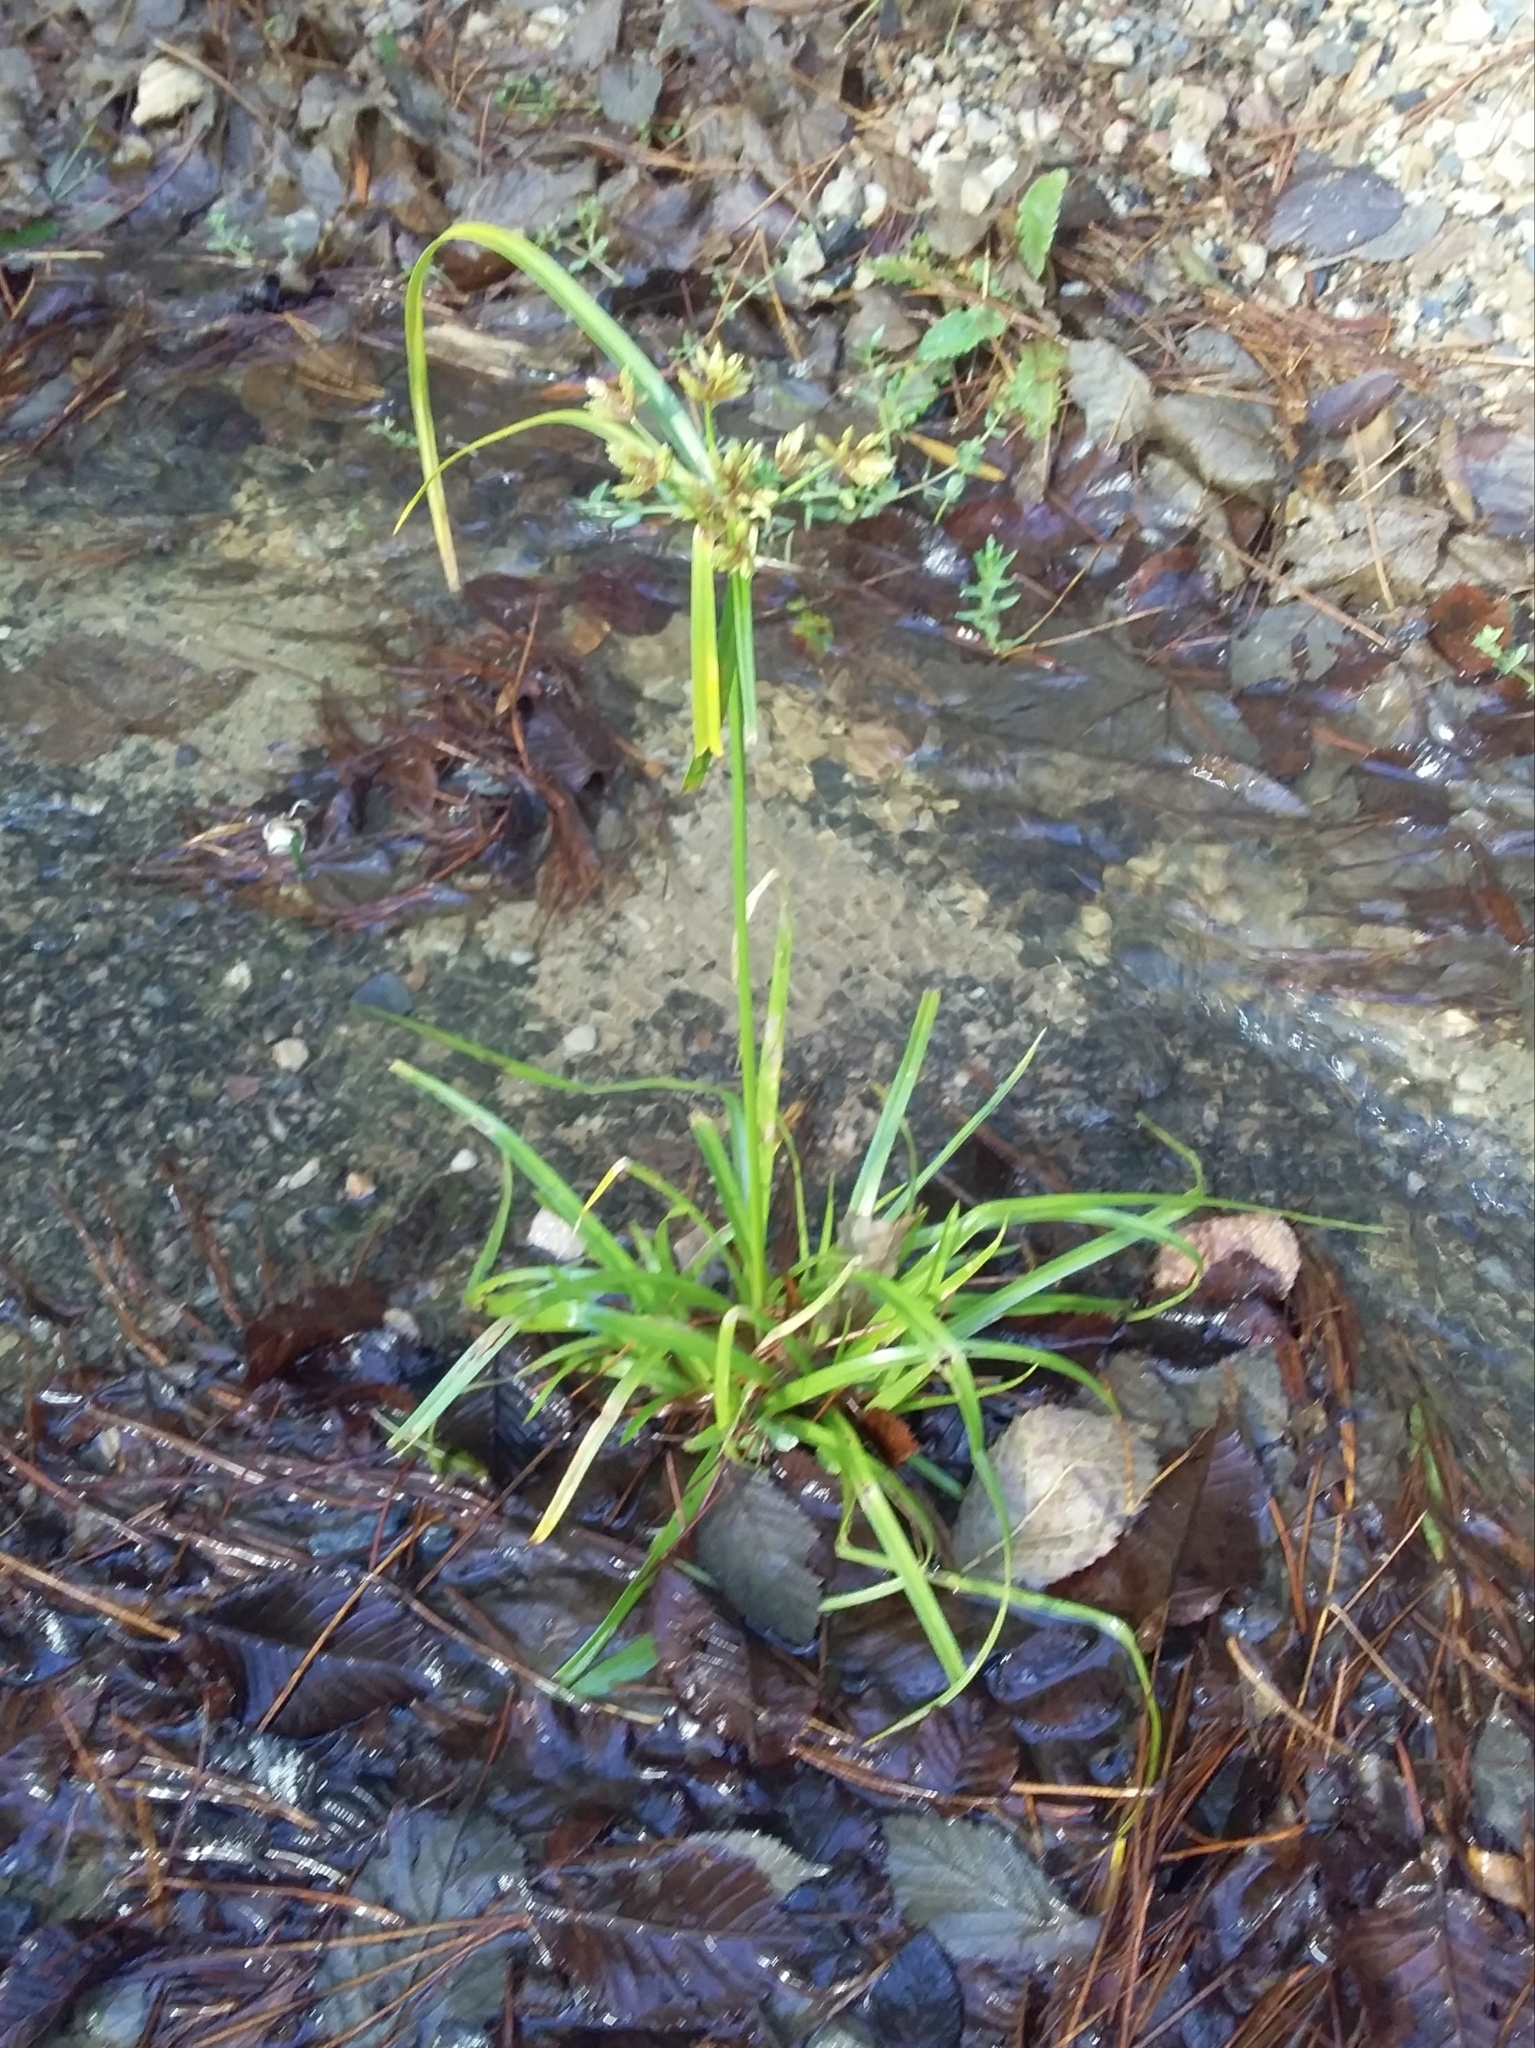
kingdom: Plantae
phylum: Tracheophyta
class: Liliopsida
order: Poales
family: Cyperaceae
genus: Cyperus
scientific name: Cyperus eragrostis
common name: Tall flatsedge
